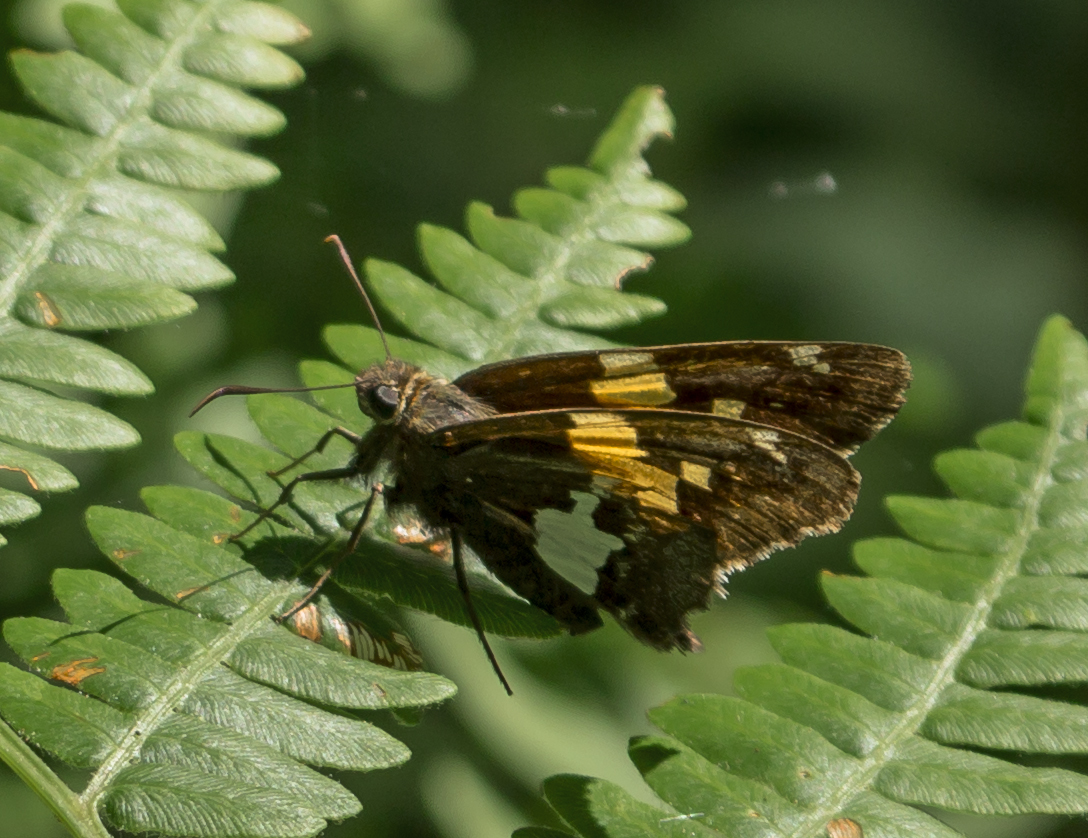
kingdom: Animalia
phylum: Arthropoda
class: Insecta
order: Lepidoptera
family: Hesperiidae
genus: Epargyreus
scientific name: Epargyreus clarus
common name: Silver-spotted skipper
